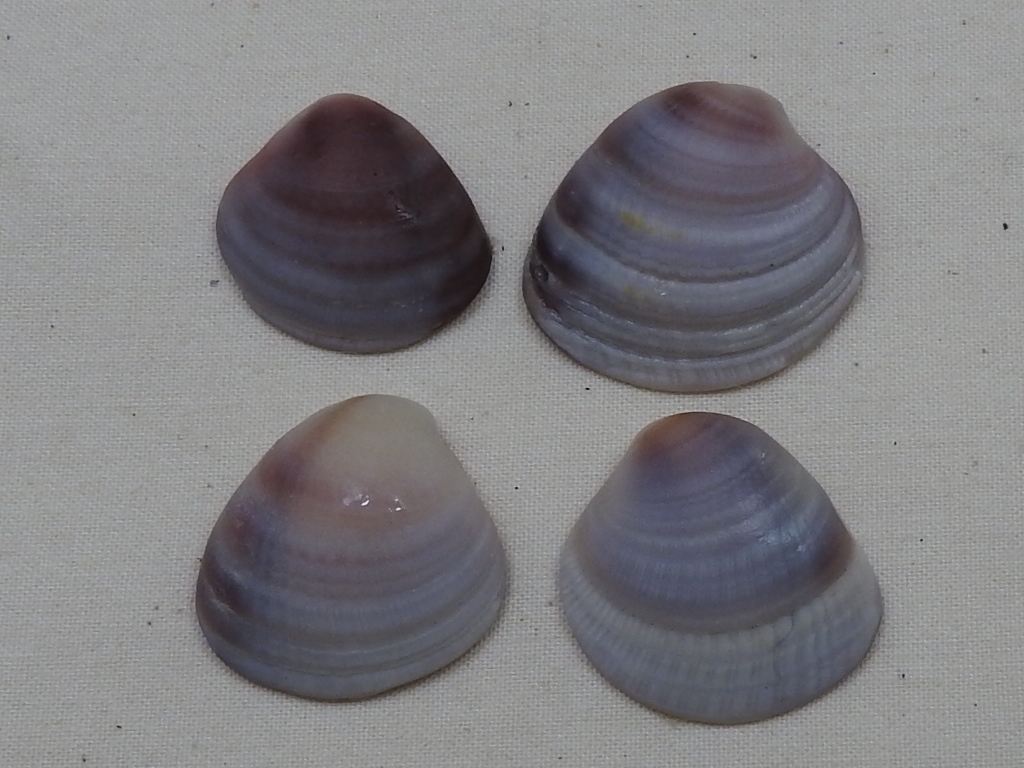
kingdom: Animalia
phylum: Mollusca
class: Bivalvia
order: Venerida
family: Veneridae
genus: Chione
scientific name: Chione elevata
